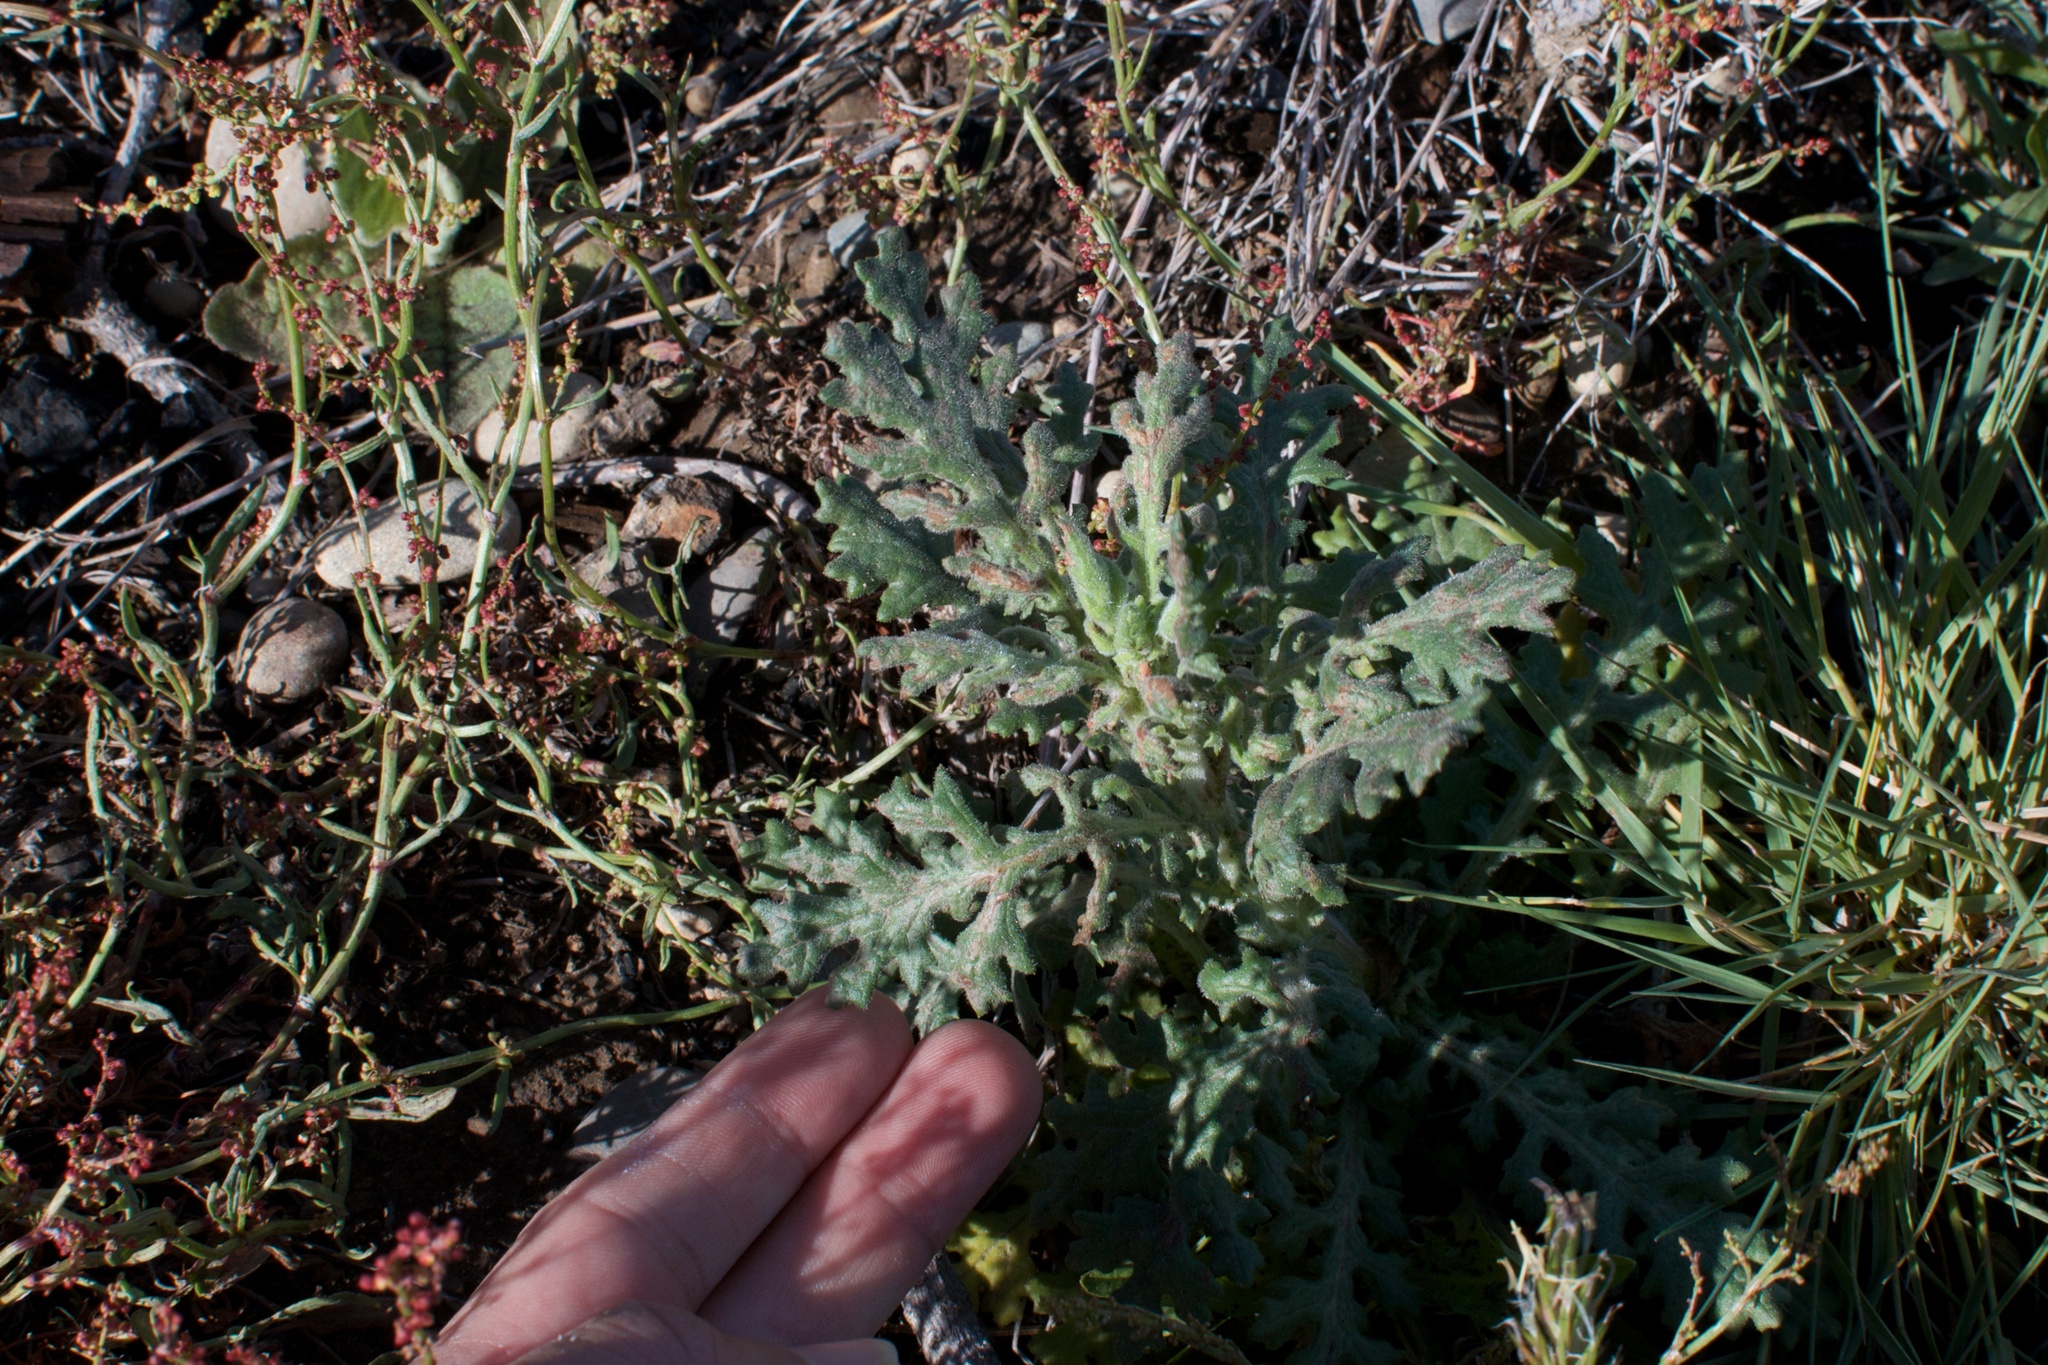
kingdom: Plantae
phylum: Tracheophyta
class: Magnoliopsida
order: Asterales
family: Asteraceae
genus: Senecio
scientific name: Senecio sylvaticus
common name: Woodland ragwort
